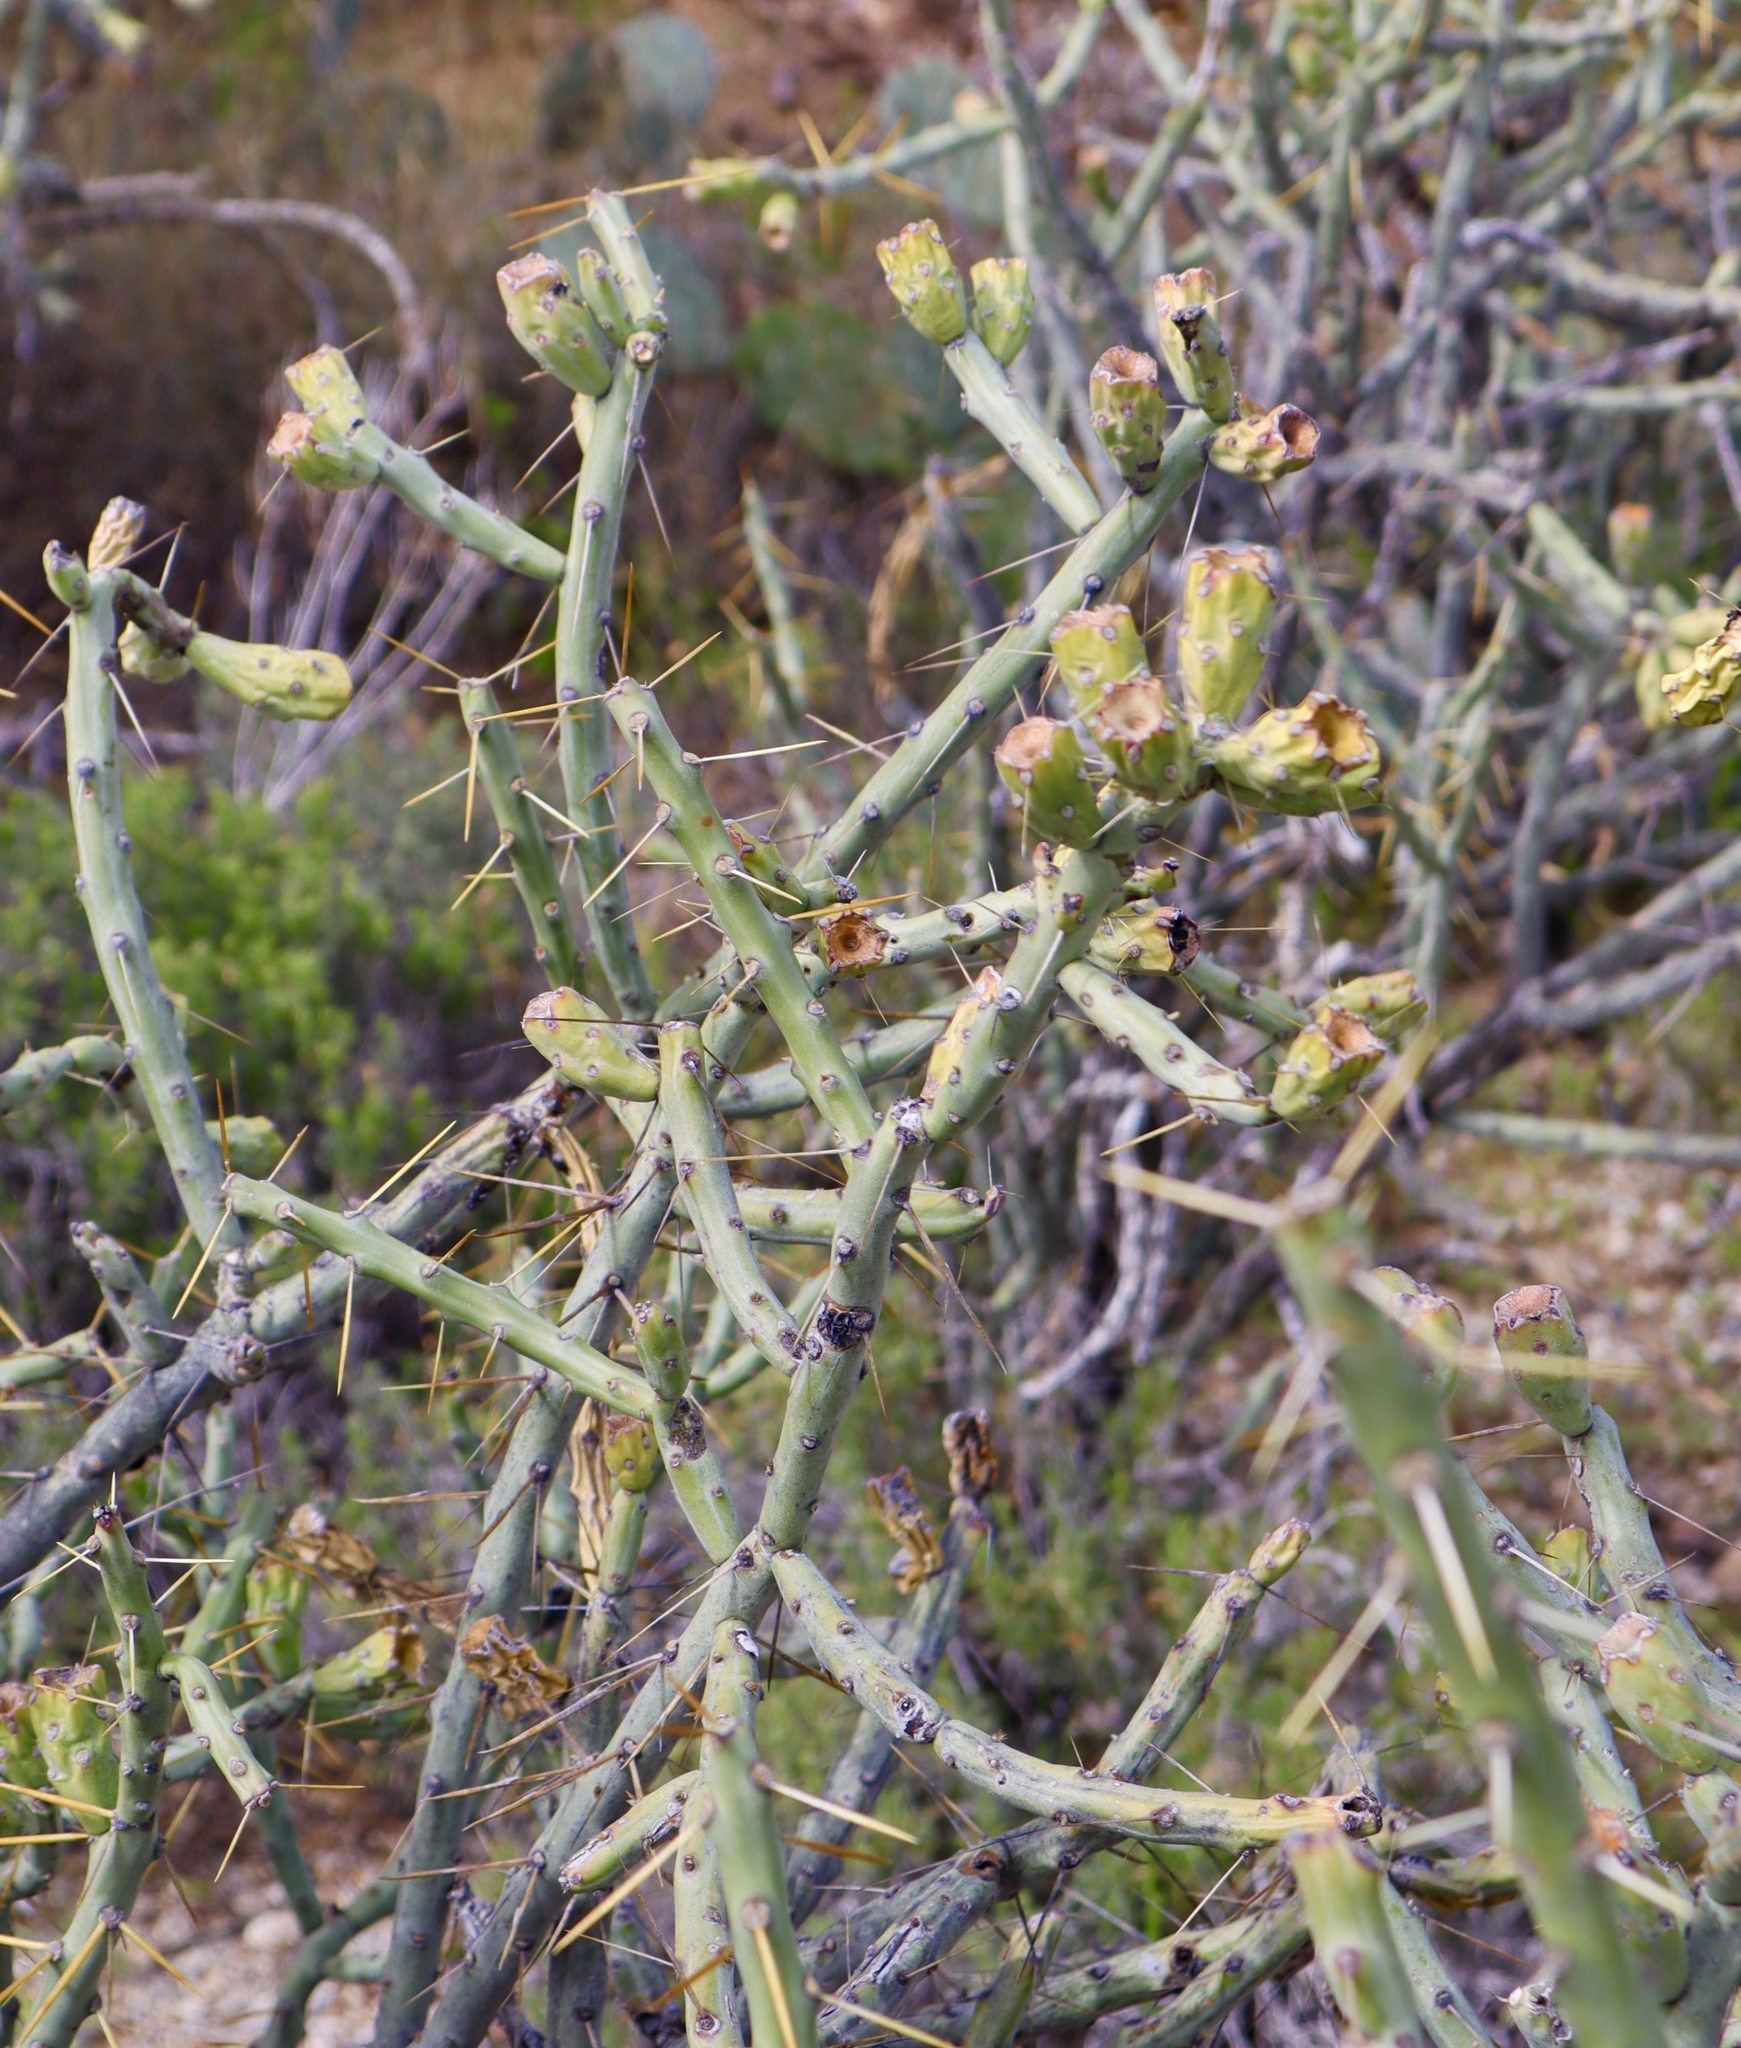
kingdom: Plantae
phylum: Tracheophyta
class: Magnoliopsida
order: Caryophyllales
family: Cactaceae
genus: Cylindropuntia
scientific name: Cylindropuntia arbuscula
